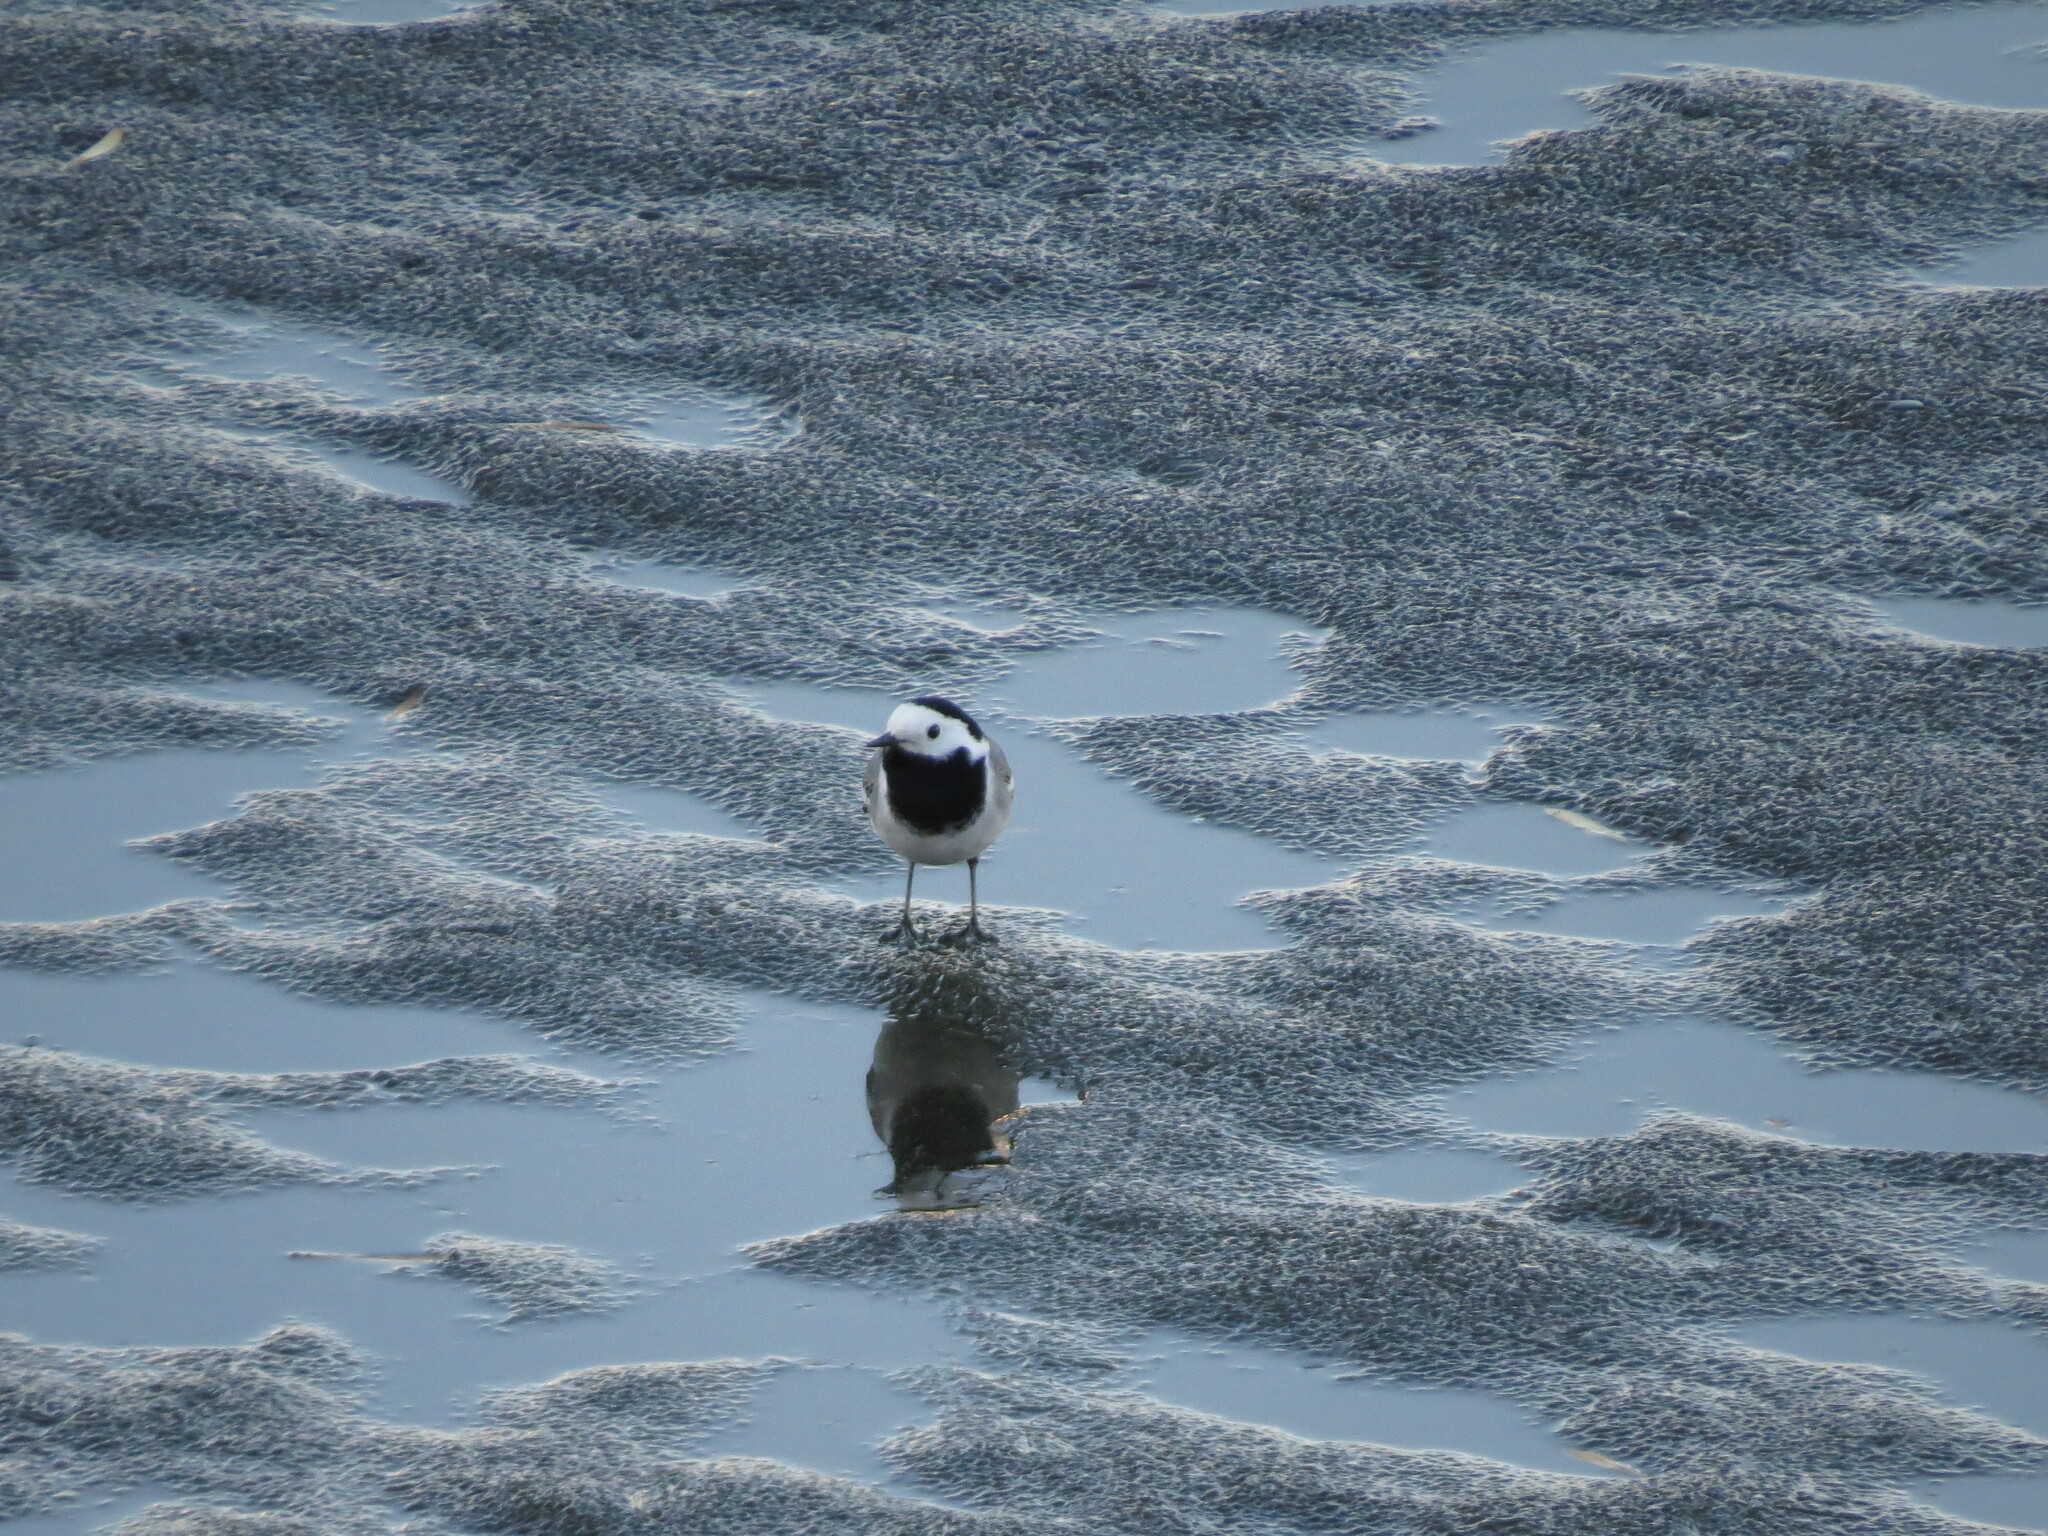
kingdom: Animalia
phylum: Chordata
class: Aves
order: Passeriformes
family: Motacillidae
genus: Motacilla
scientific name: Motacilla alba
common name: White wagtail
